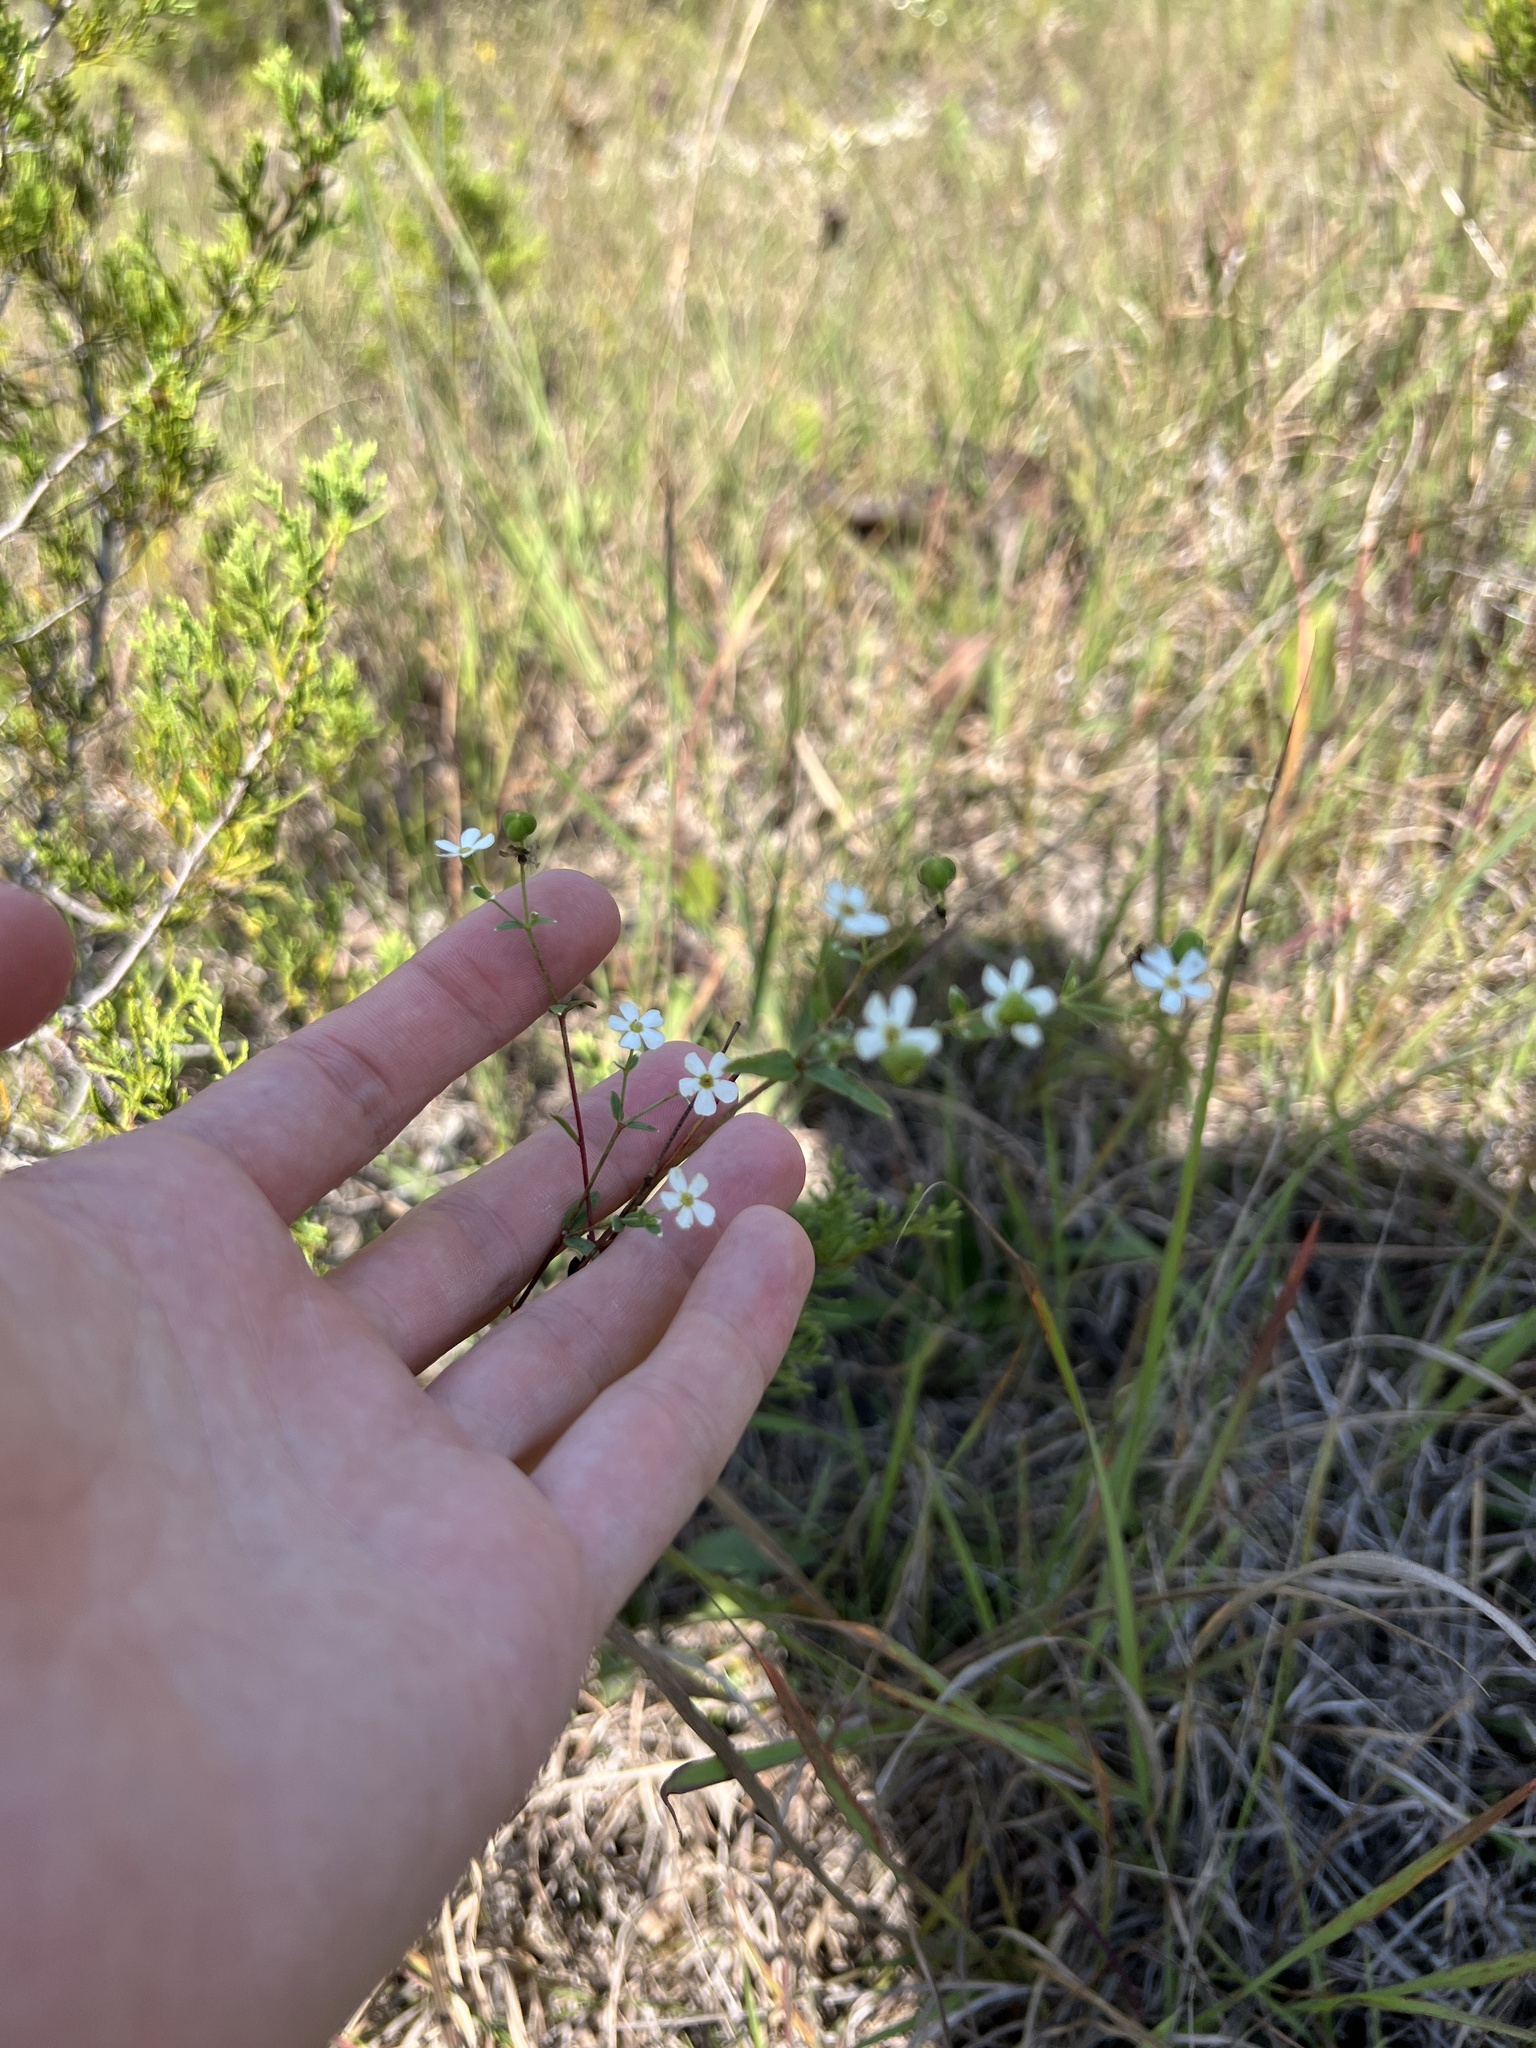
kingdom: Plantae
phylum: Tracheophyta
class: Magnoliopsida
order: Malpighiales
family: Euphorbiaceae
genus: Euphorbia
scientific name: Euphorbia corollata
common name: Flowering spurge
